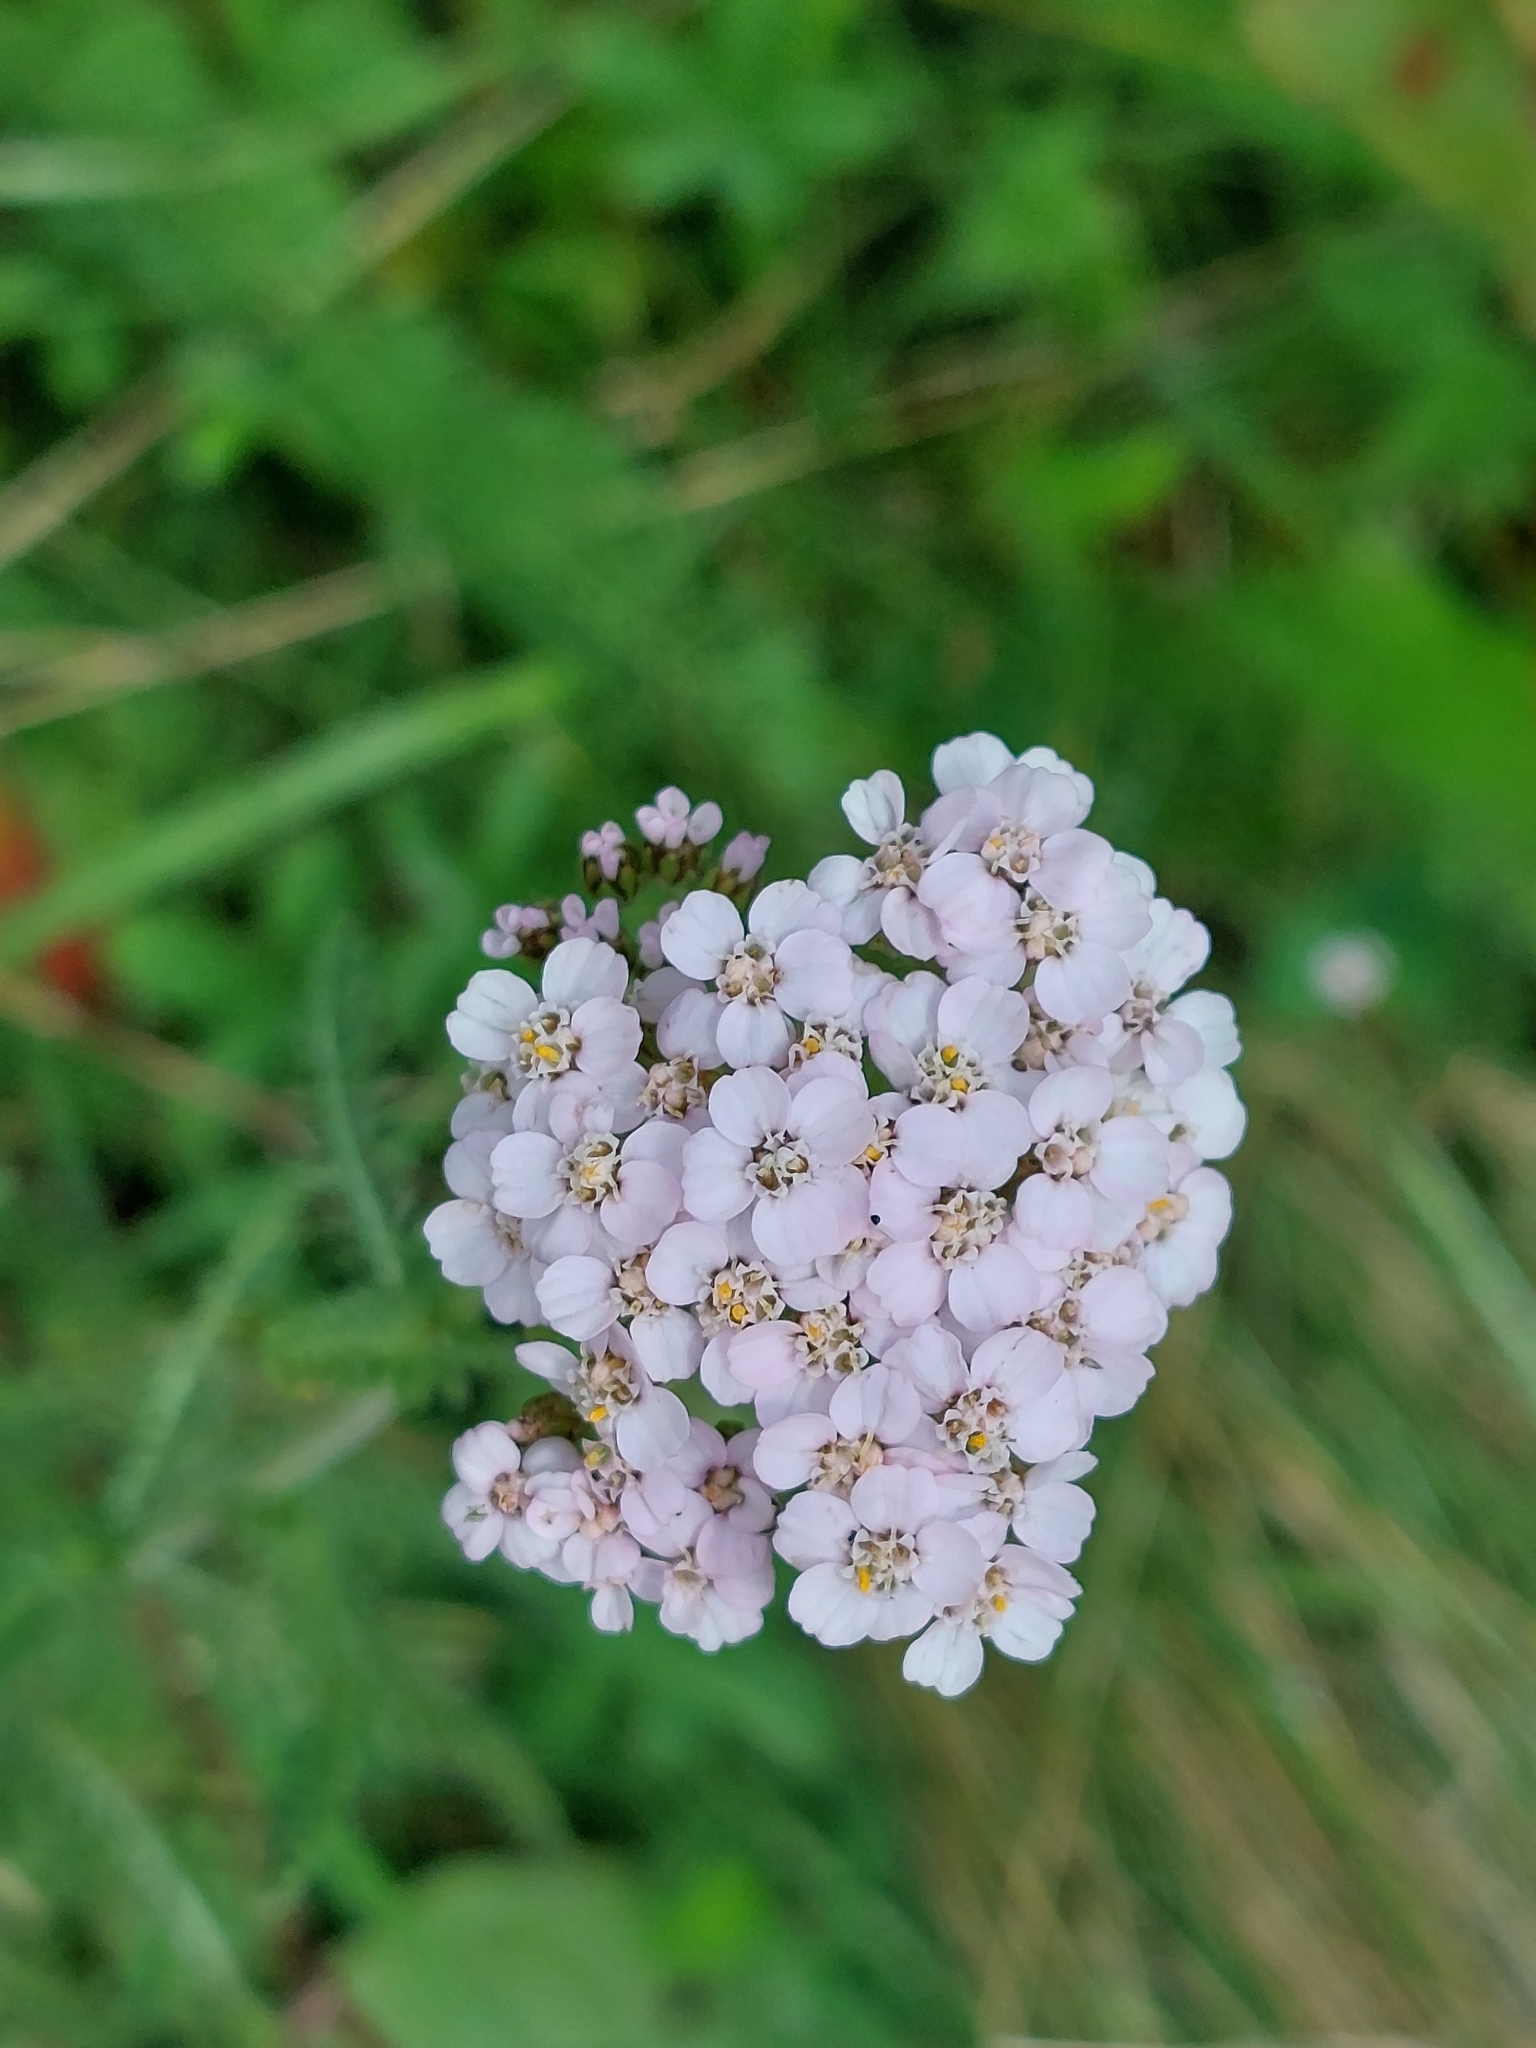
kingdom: Plantae
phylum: Tracheophyta
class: Magnoliopsida
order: Asterales
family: Asteraceae
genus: Achillea
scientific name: Achillea millefolium
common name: Yarrow
